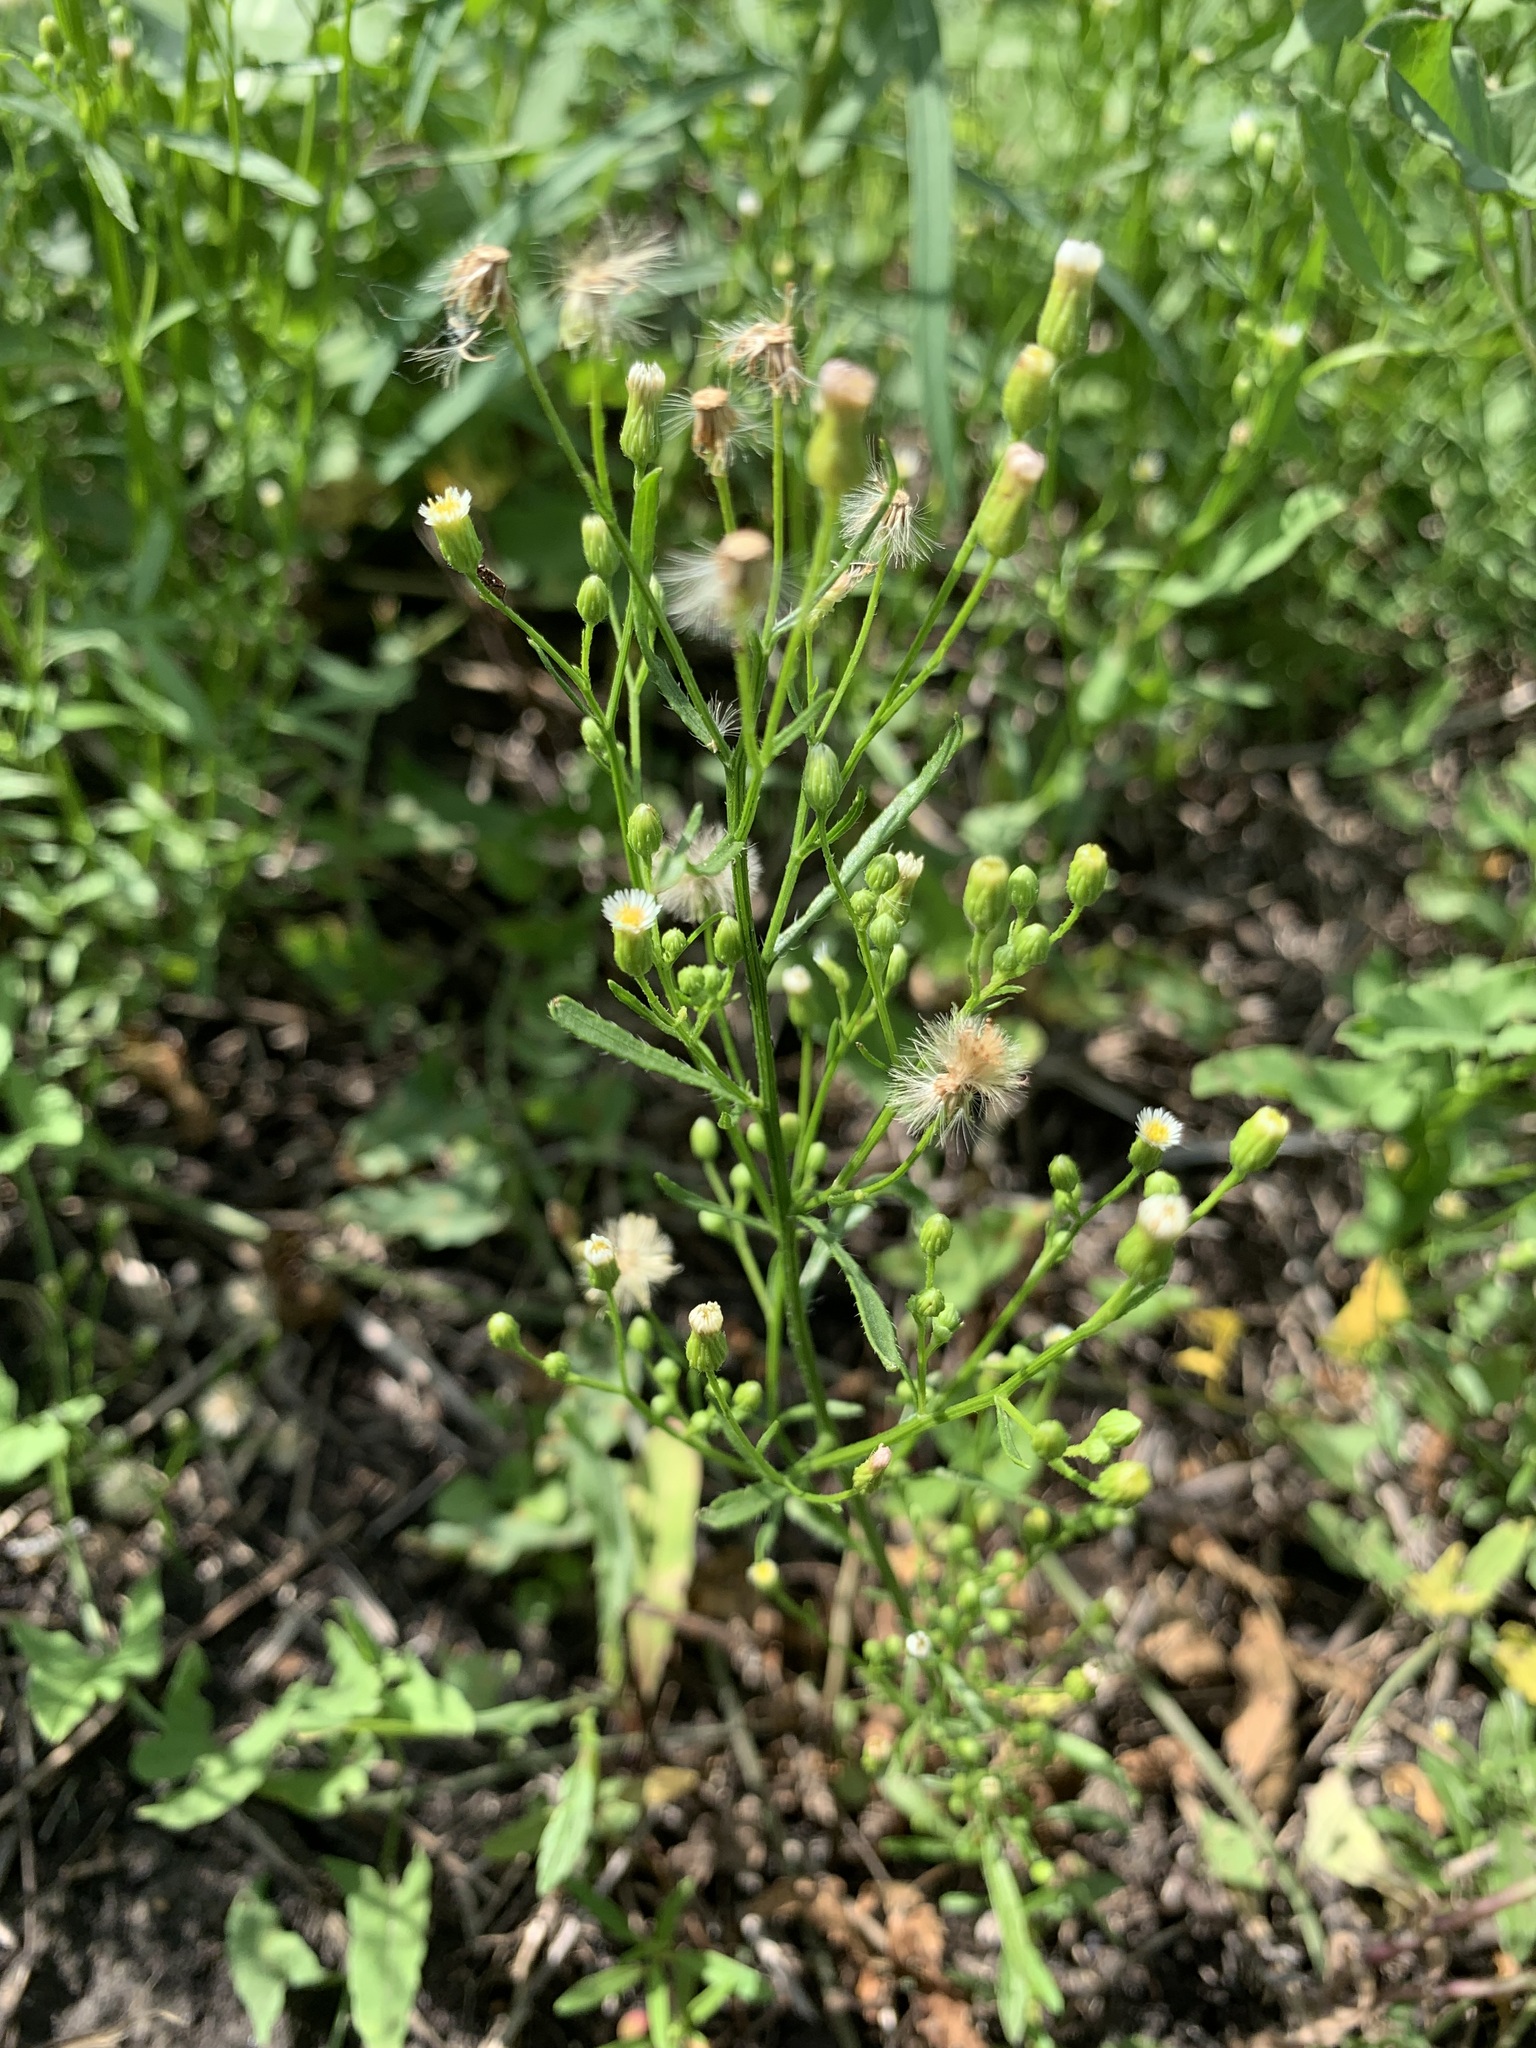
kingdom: Plantae
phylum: Tracheophyta
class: Magnoliopsida
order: Asterales
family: Asteraceae
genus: Erigeron
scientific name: Erigeron canadensis
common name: Canadian fleabane
